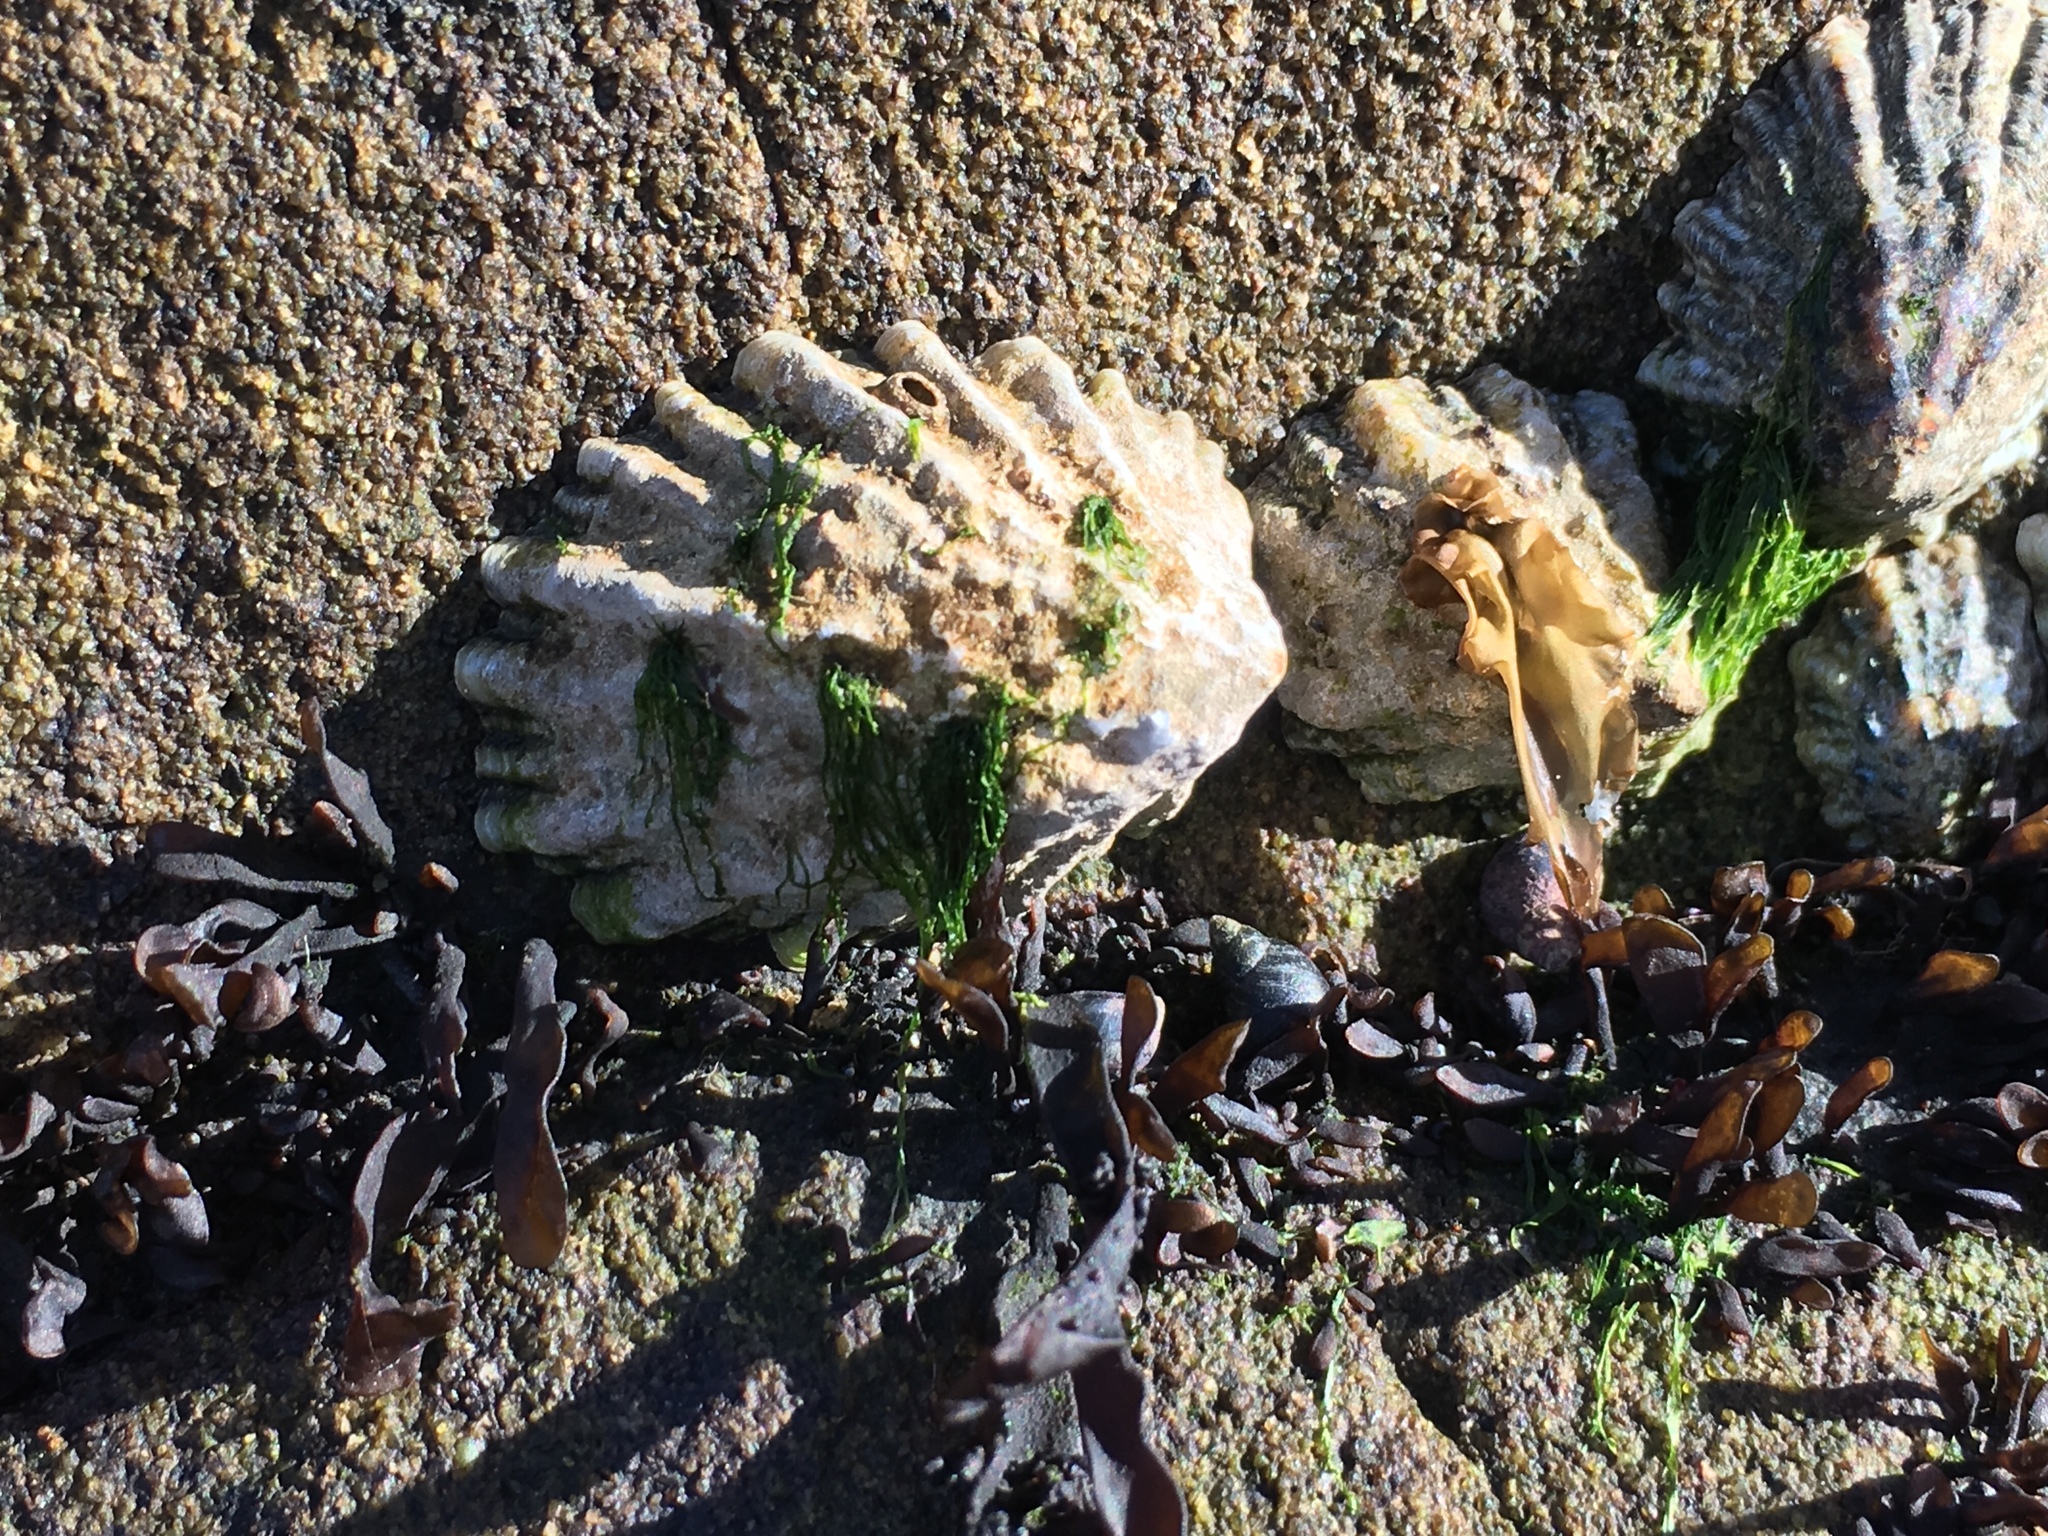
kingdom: Animalia
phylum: Mollusca
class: Gastropoda
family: Lottiidae
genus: Lottia
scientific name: Lottia scabra
